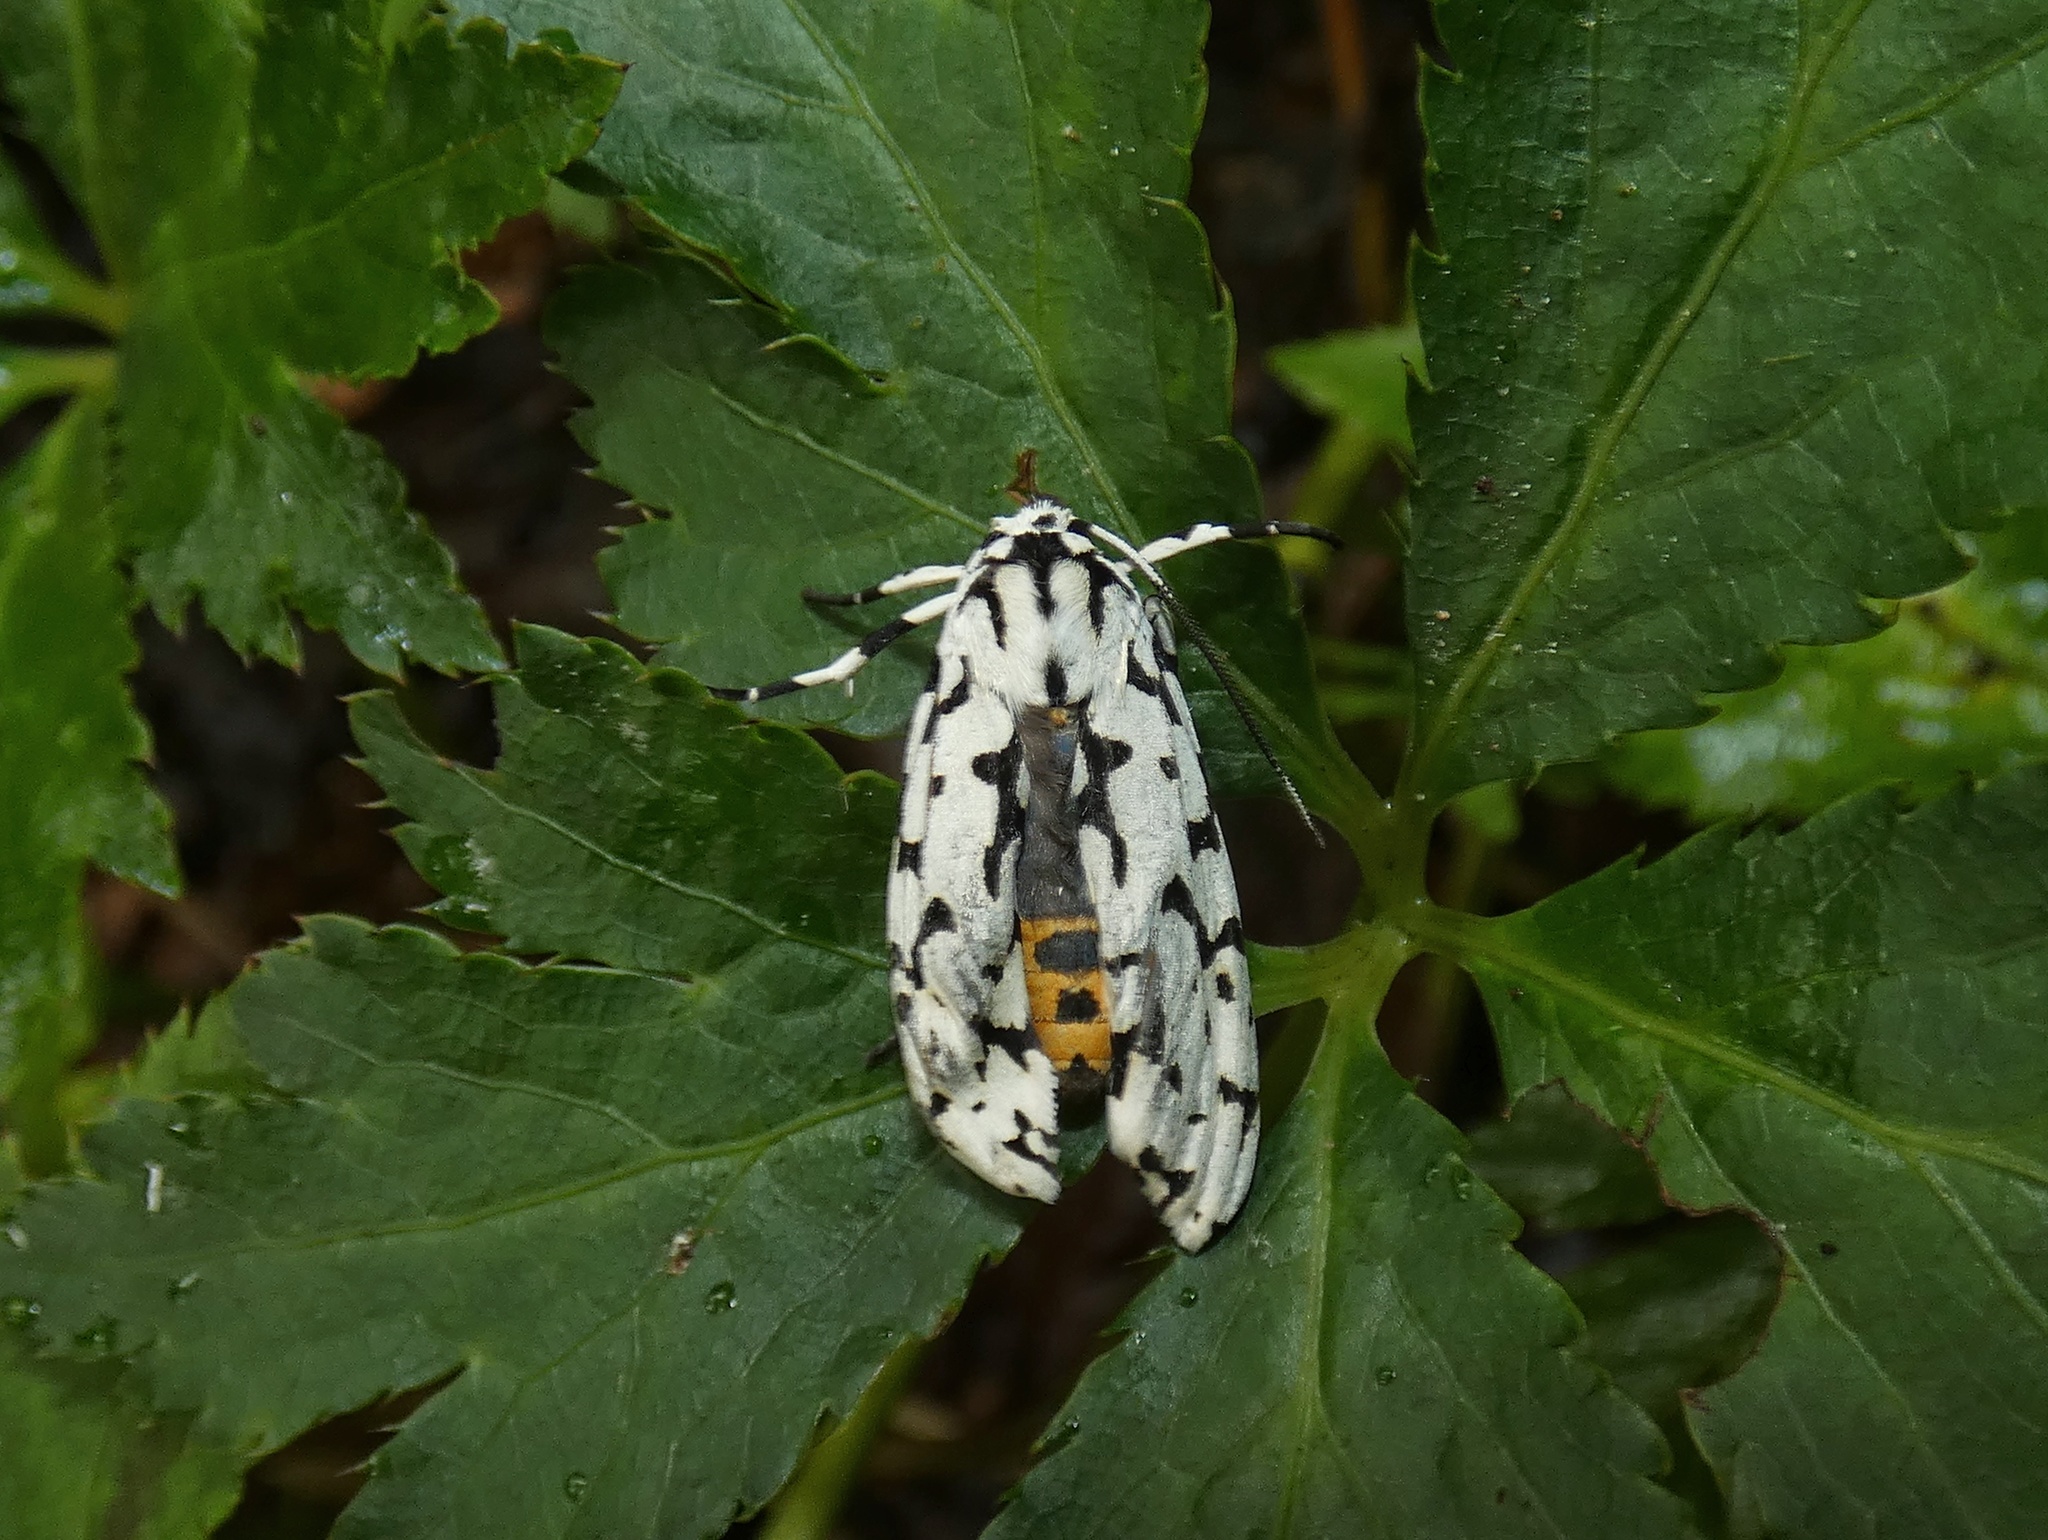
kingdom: Animalia
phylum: Arthropoda
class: Insecta
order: Lepidoptera
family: Erebidae
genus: Eucereon
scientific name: Eucereon tigrata
